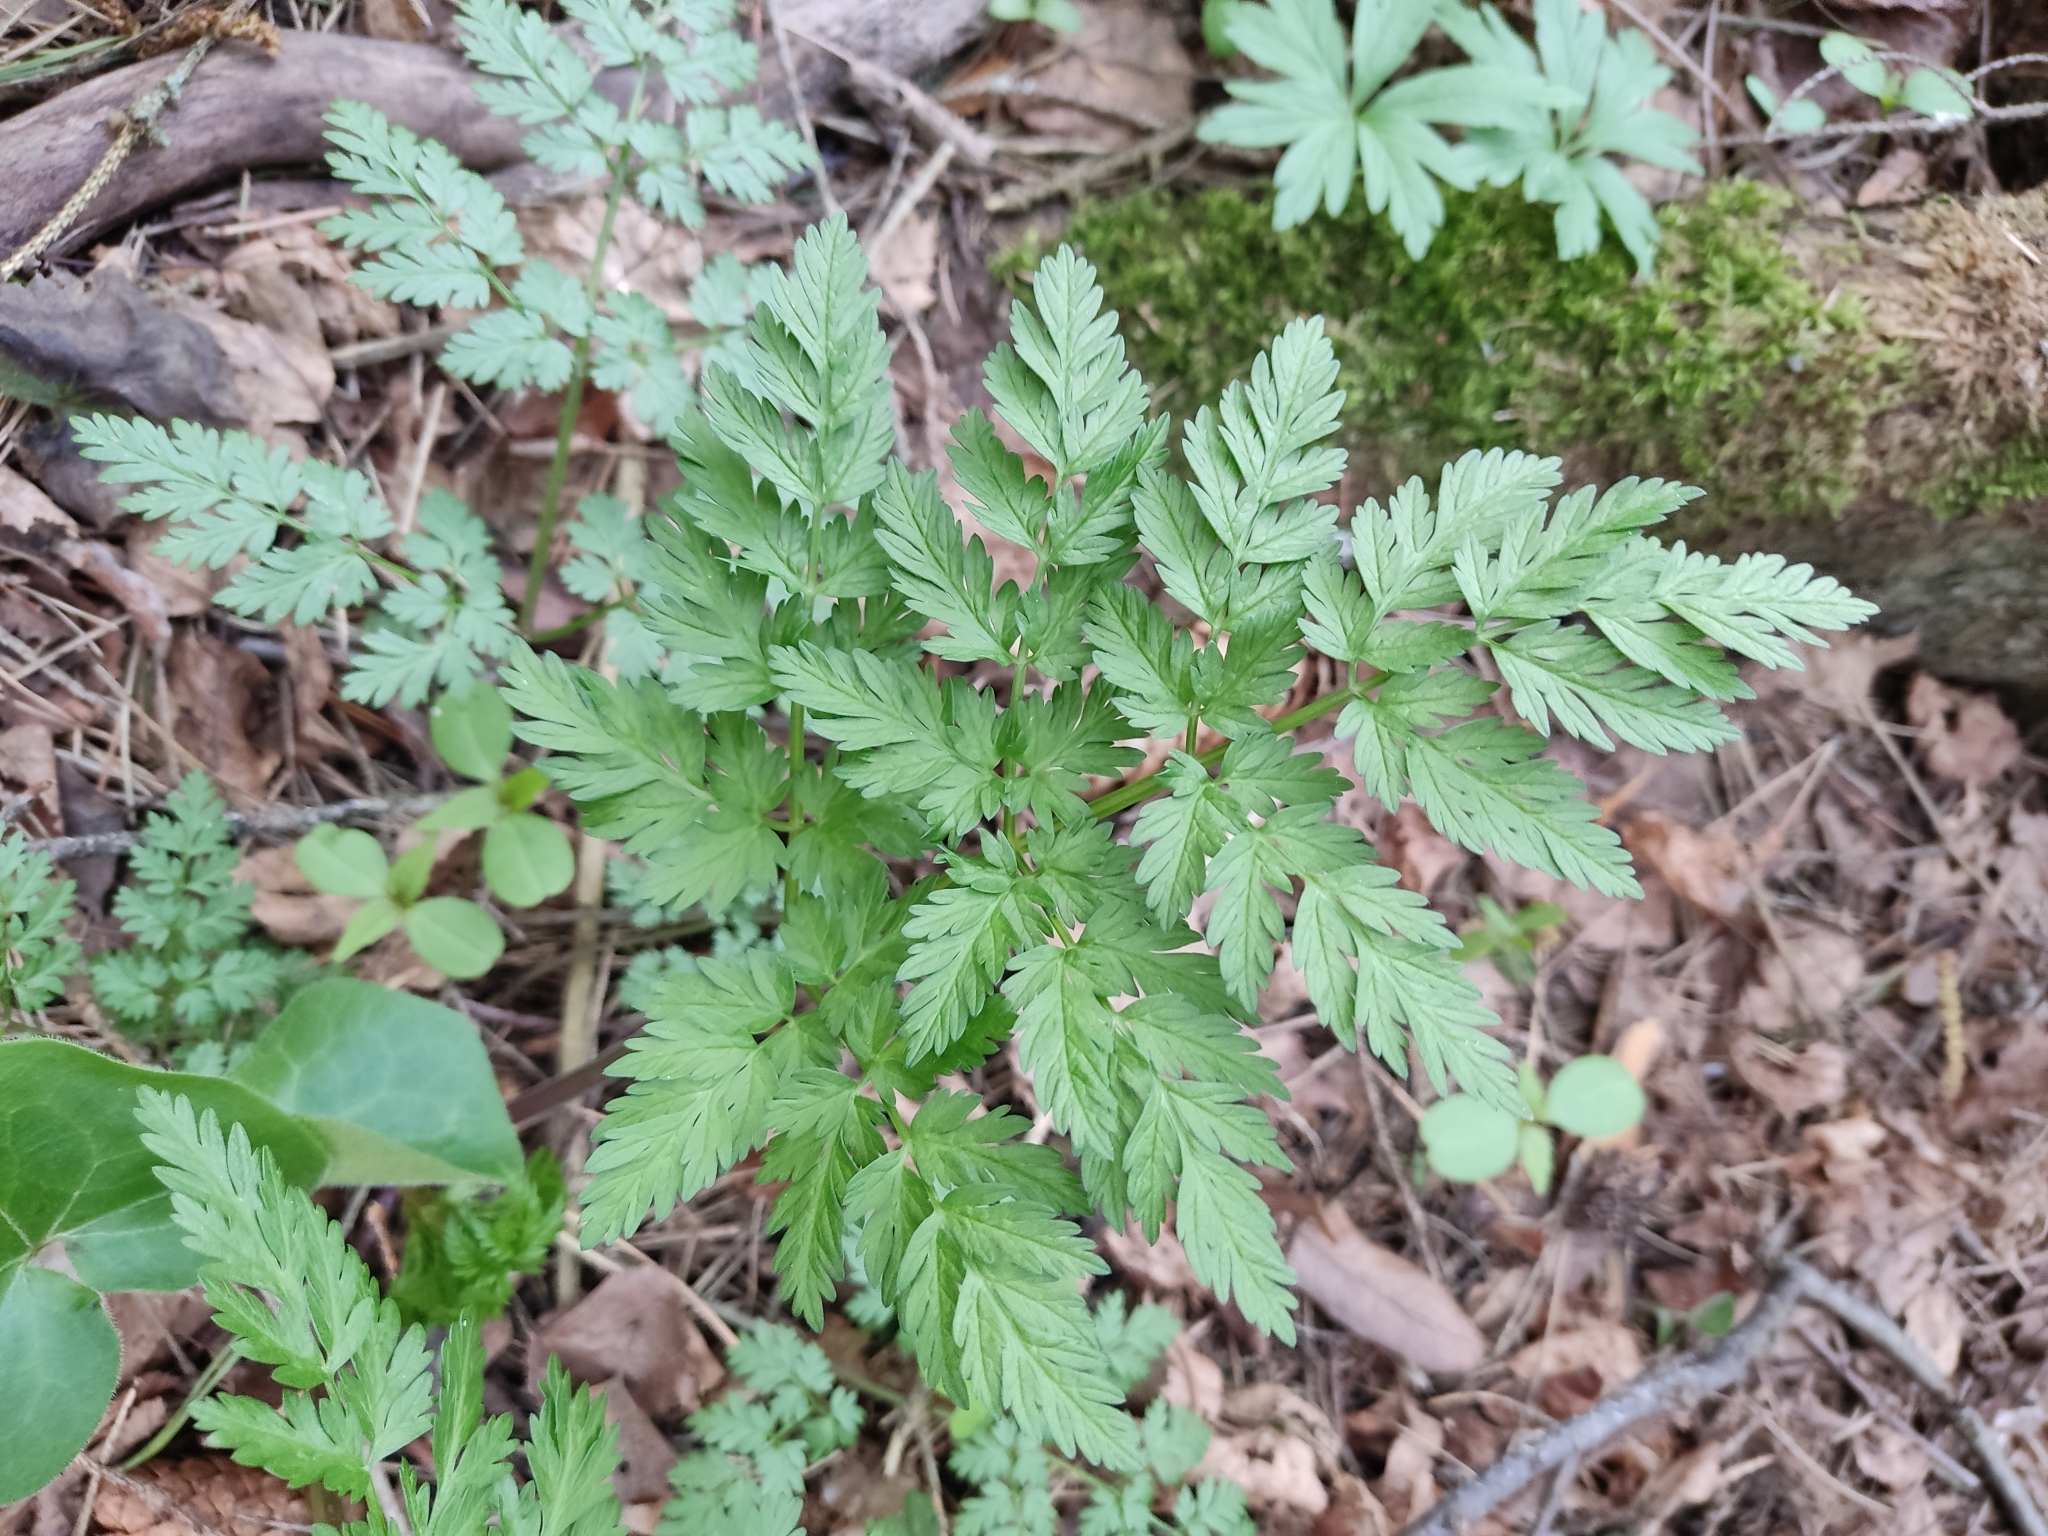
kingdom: Plantae
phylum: Tracheophyta
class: Magnoliopsida
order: Apiales
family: Apiaceae
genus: Anthriscus
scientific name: Anthriscus sylvestris
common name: Cow parsley
